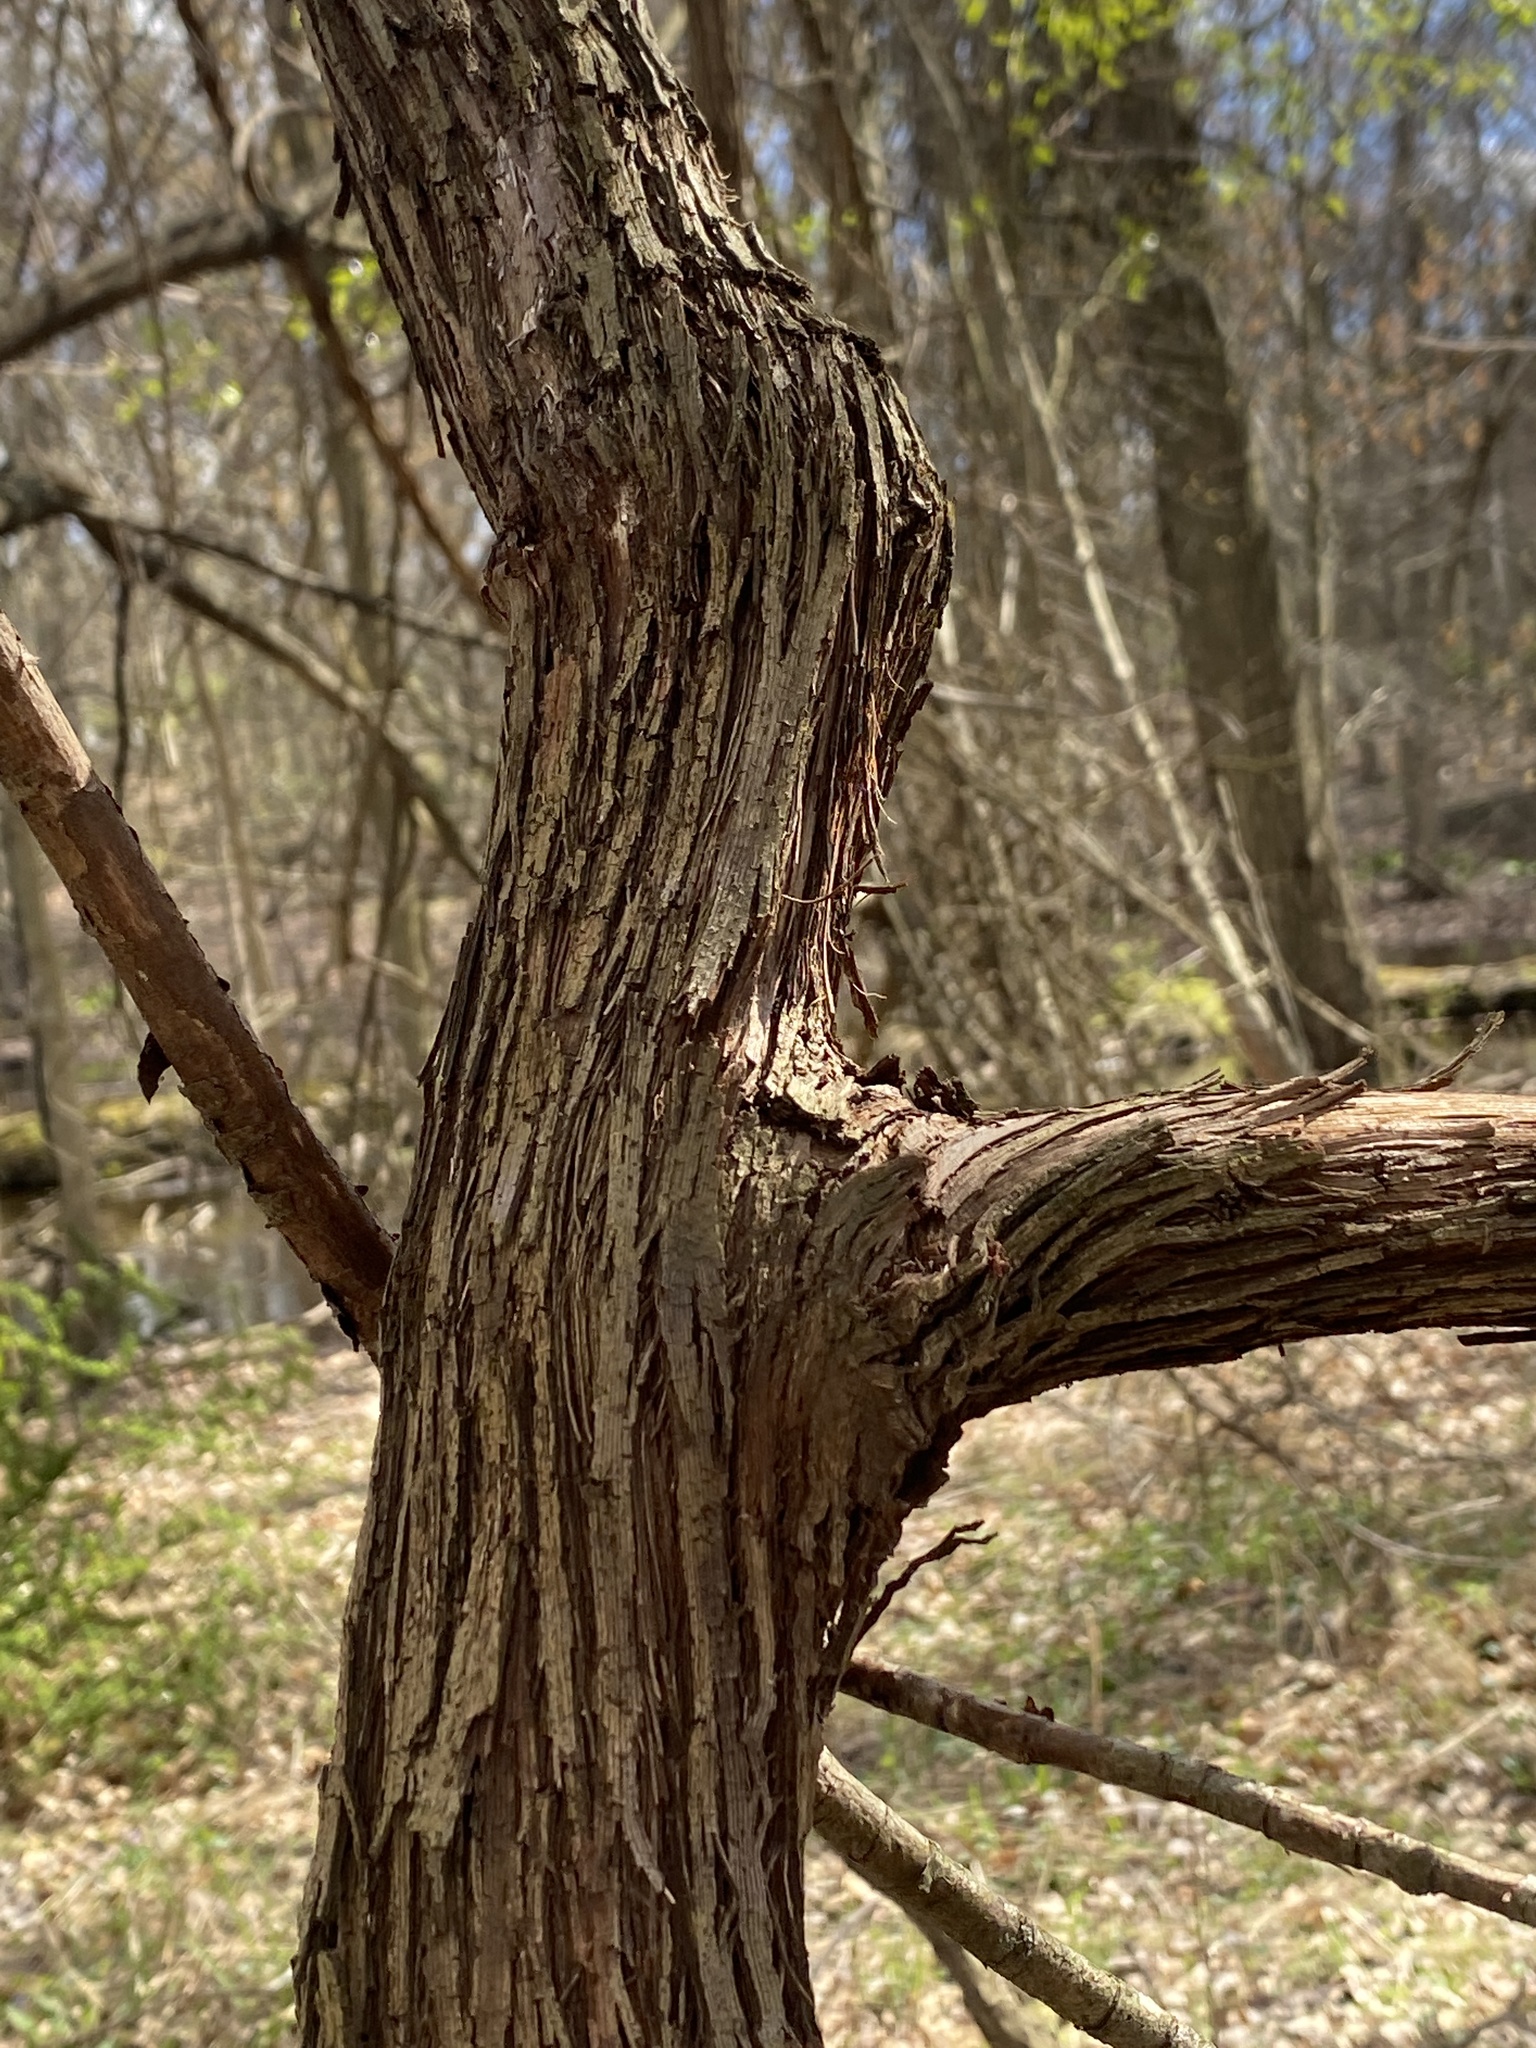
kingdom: Plantae
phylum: Tracheophyta
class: Magnoliopsida
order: Vitales
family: Vitaceae
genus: Vitis
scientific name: Vitis
